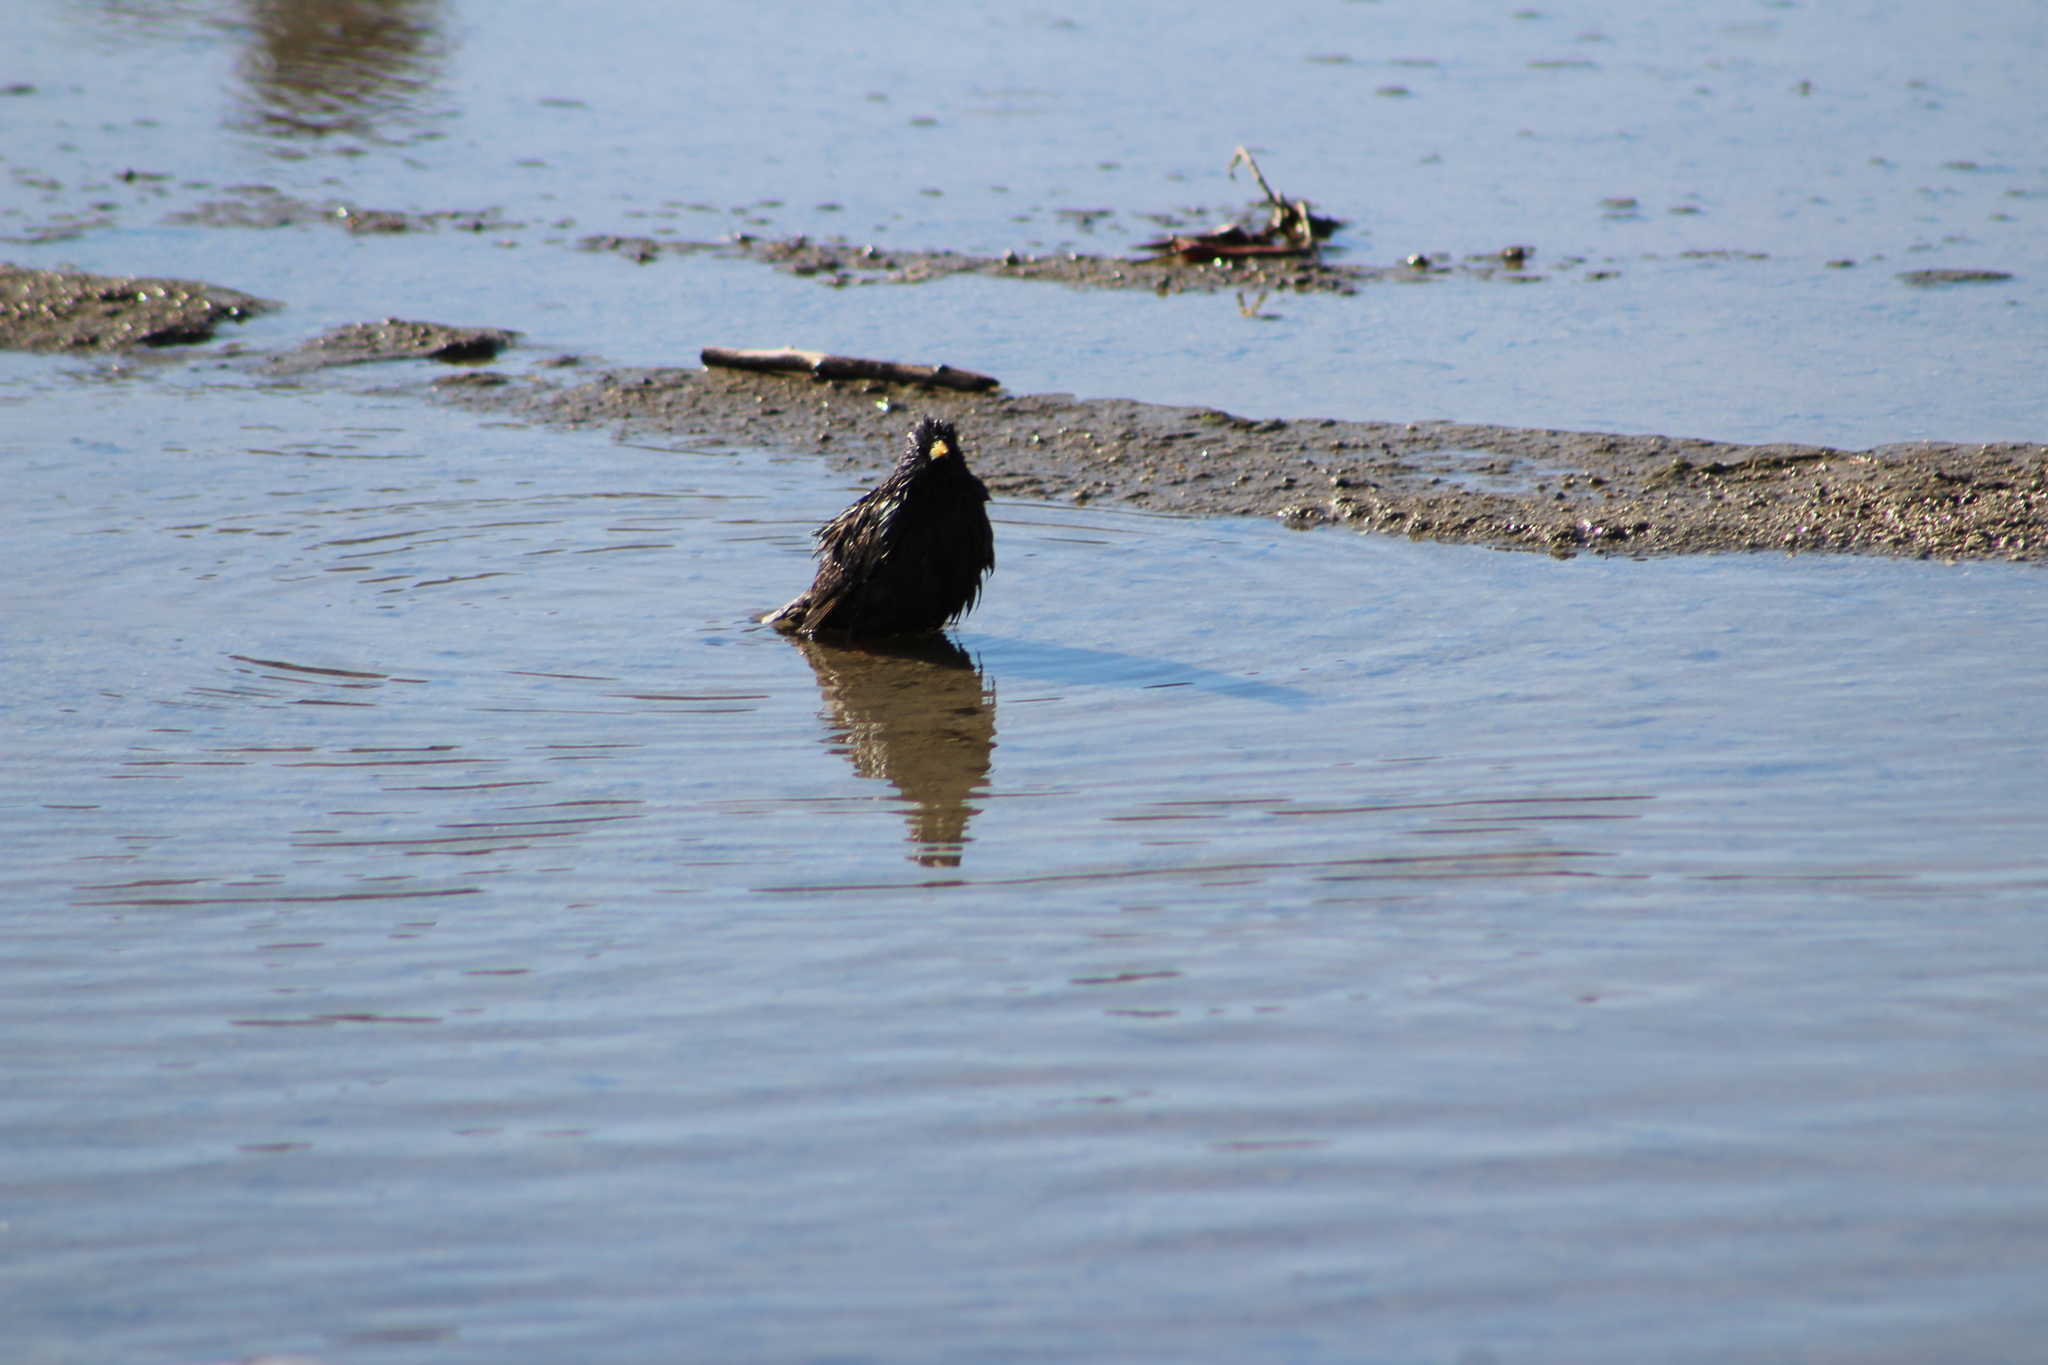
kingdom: Animalia
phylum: Chordata
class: Aves
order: Passeriformes
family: Sturnidae
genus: Sturnus
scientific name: Sturnus vulgaris
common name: Common starling
